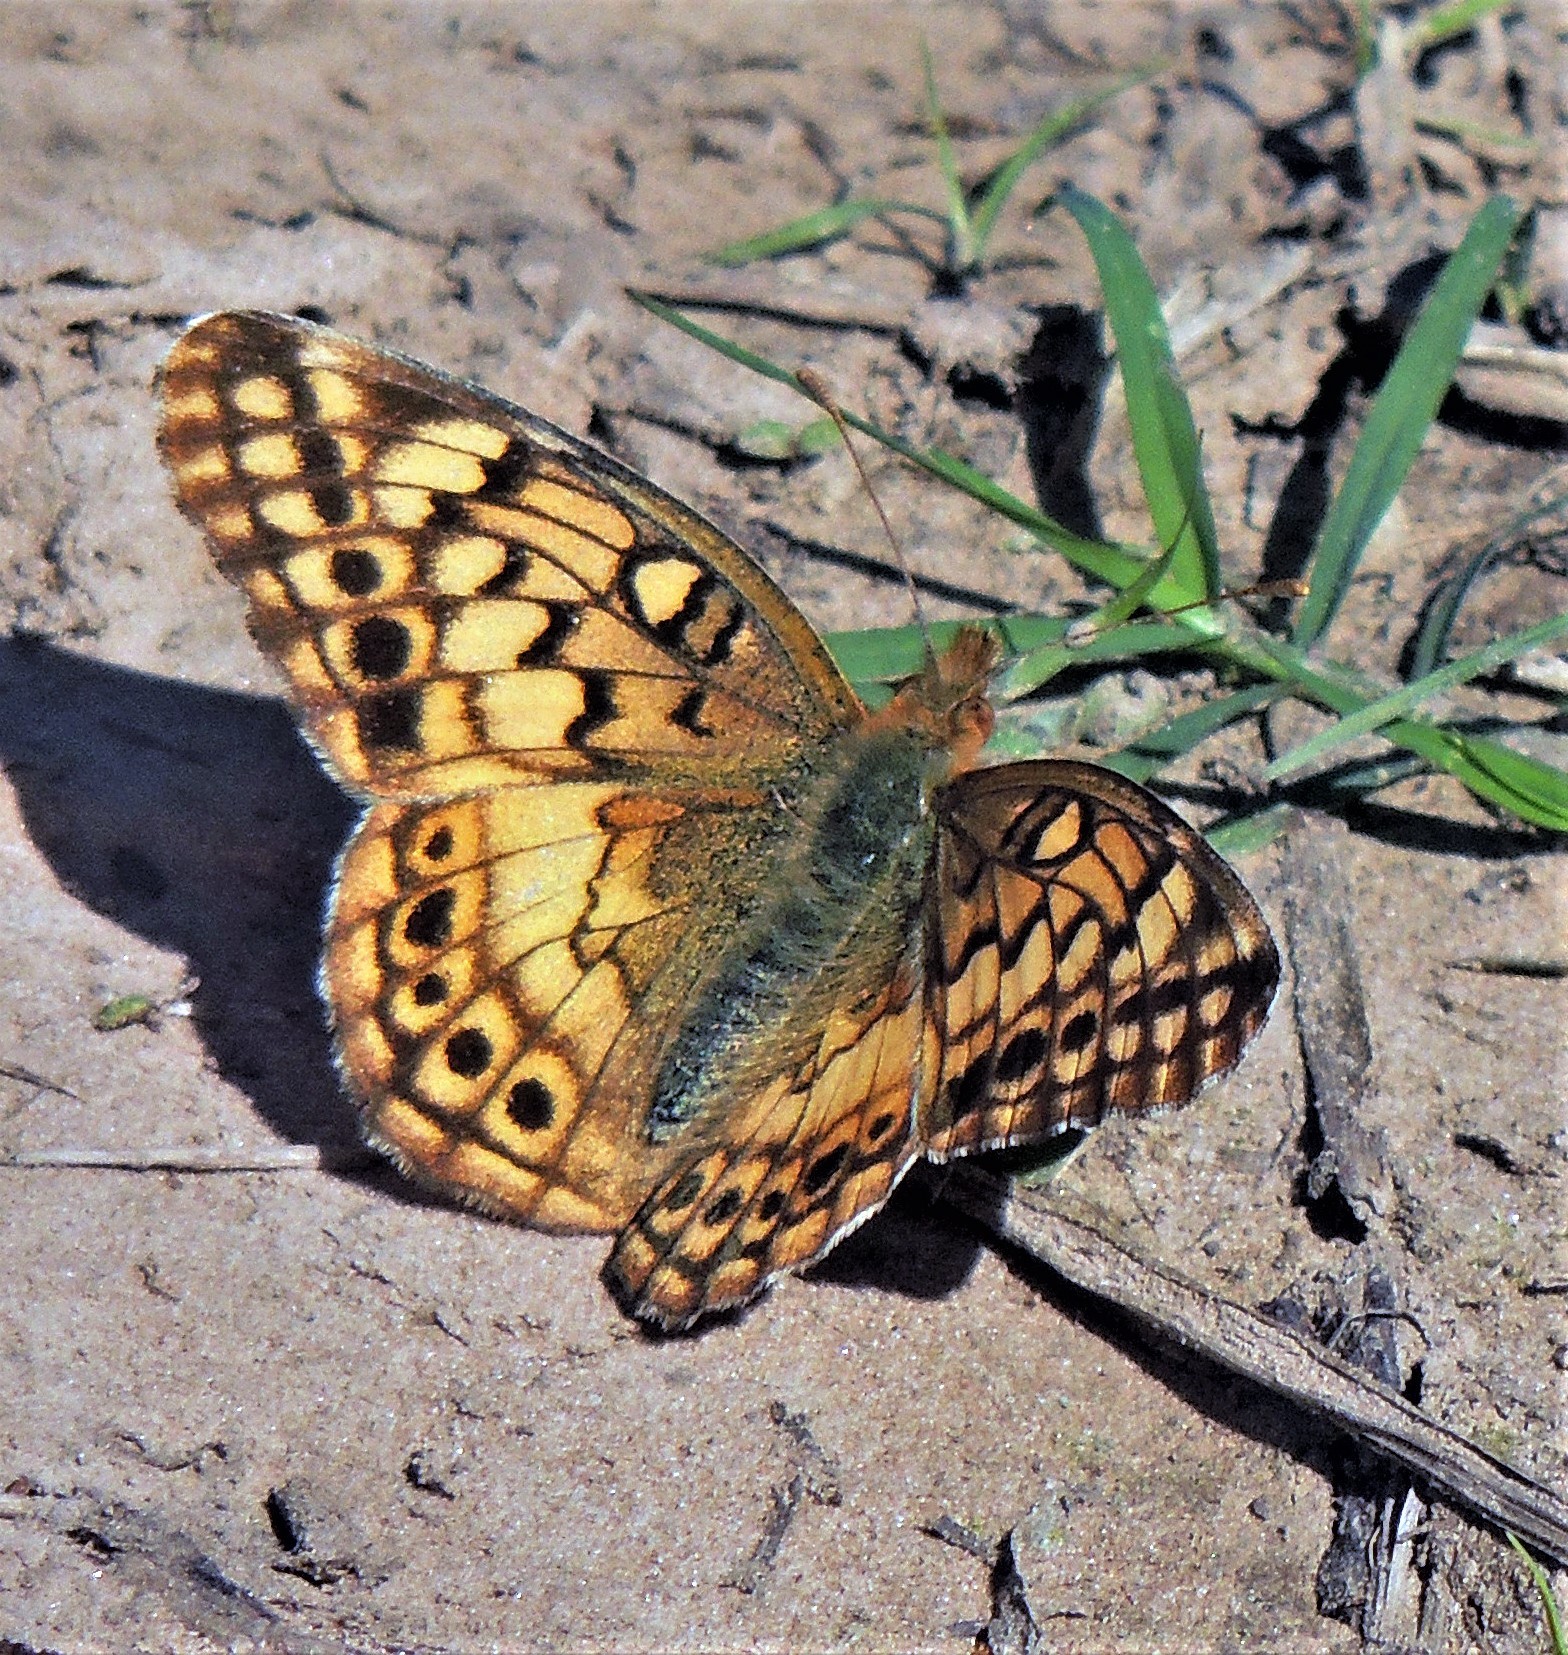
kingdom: Animalia
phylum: Arthropoda
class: Insecta
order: Lepidoptera
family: Nymphalidae
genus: Euptoieta
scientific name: Euptoieta hortensia
